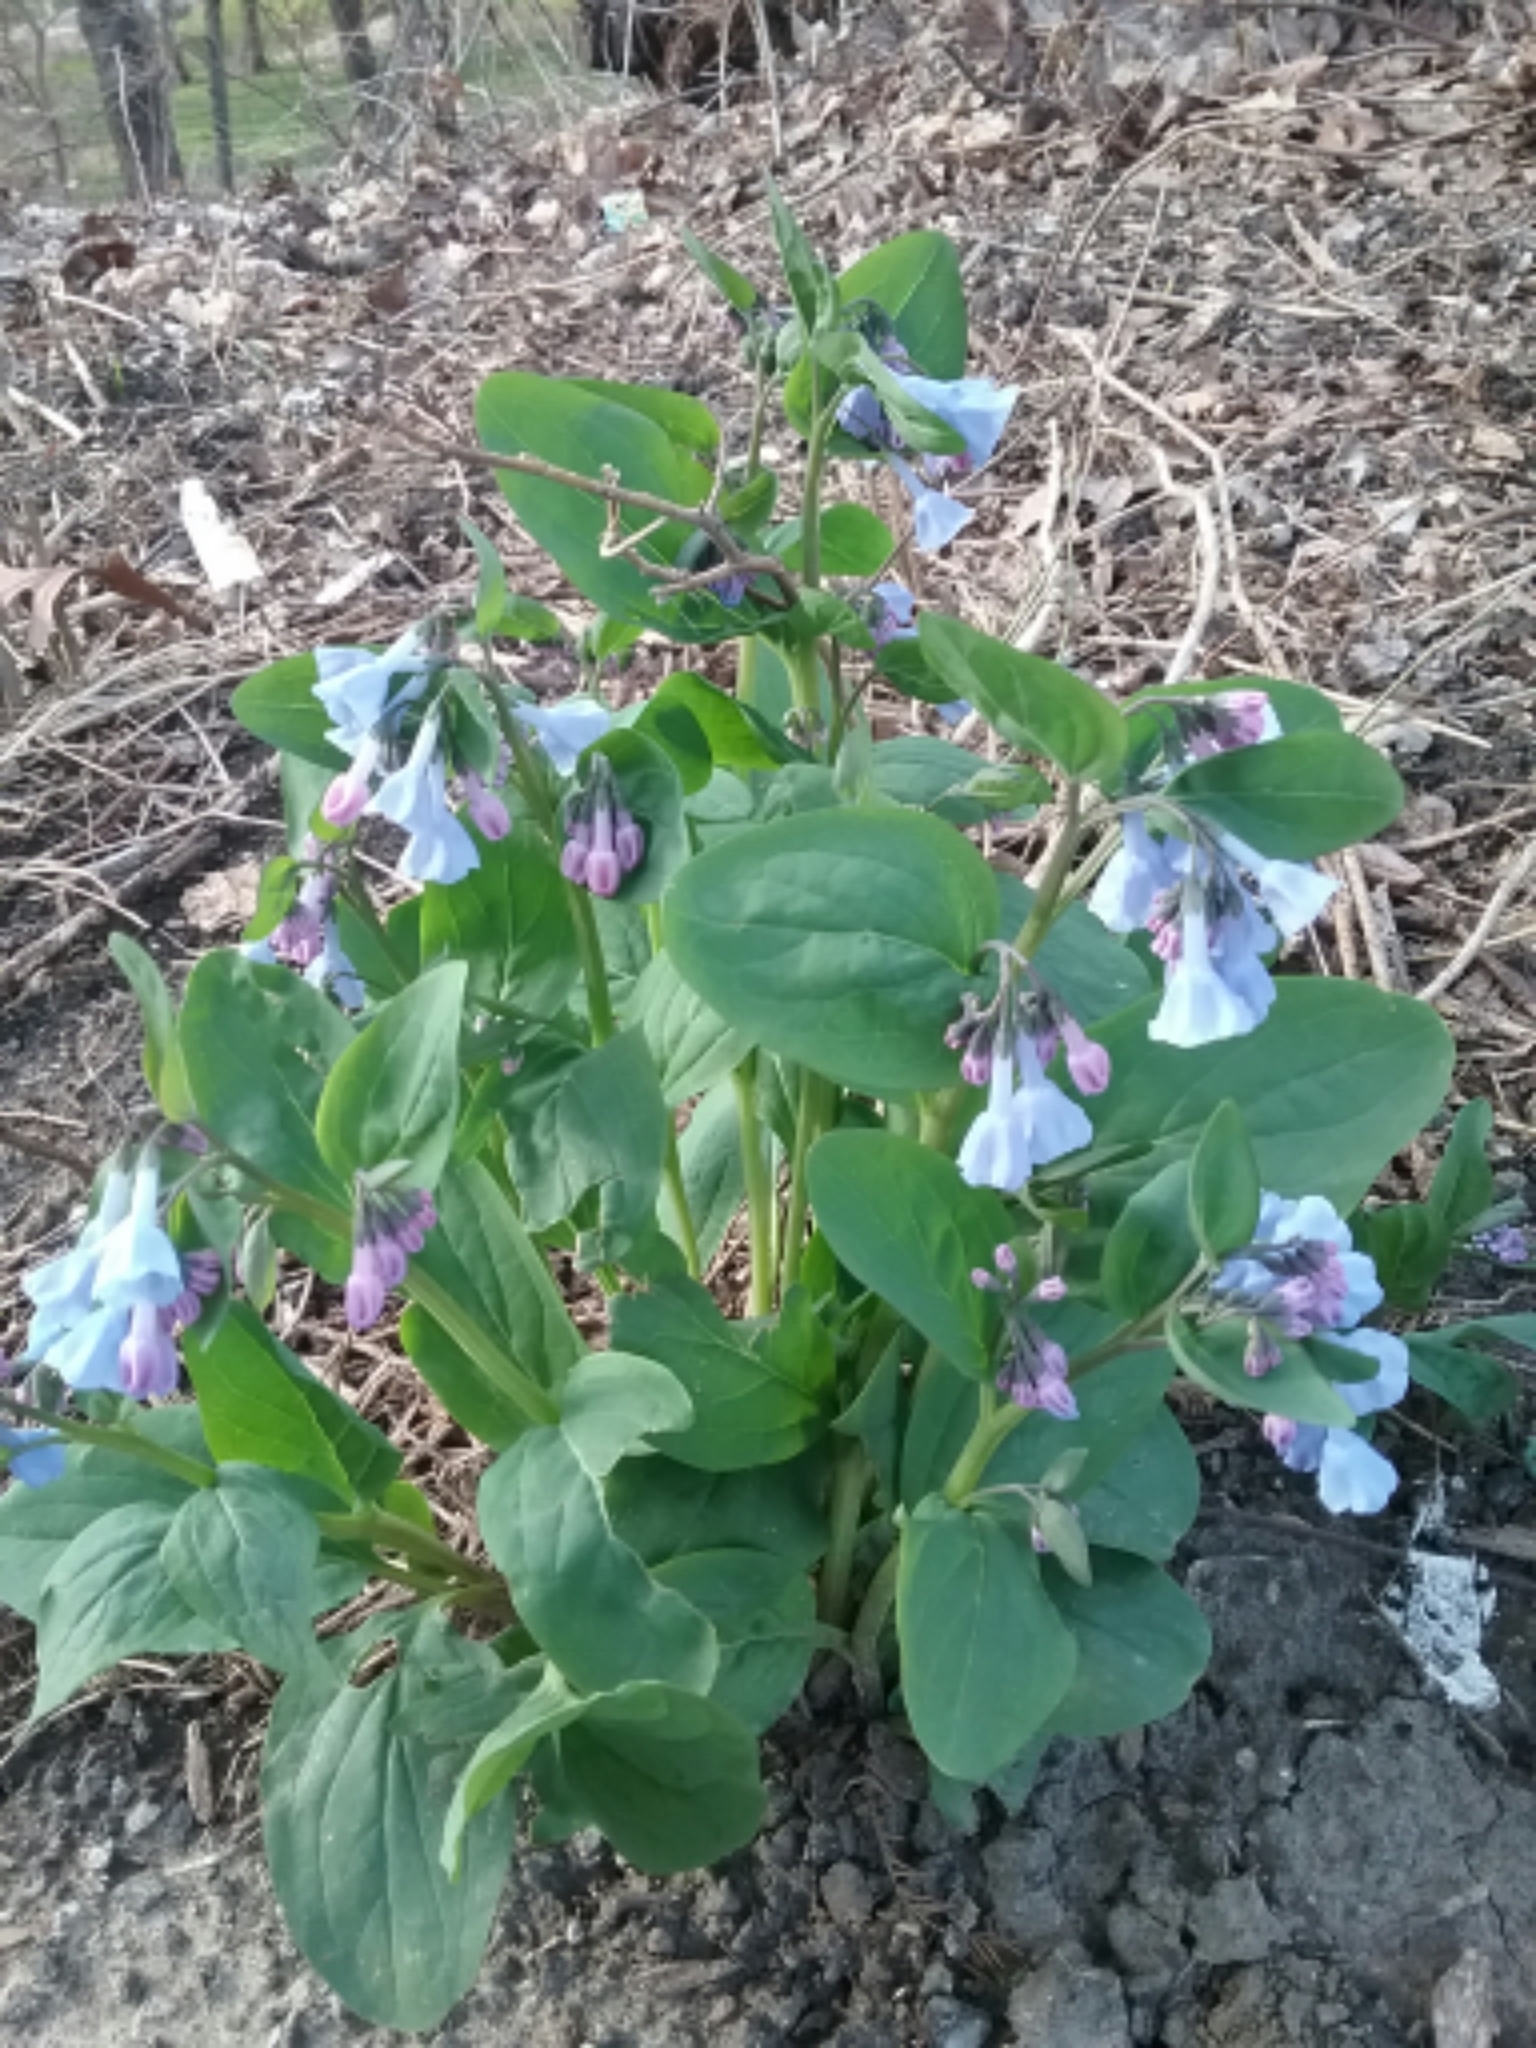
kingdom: Plantae
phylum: Tracheophyta
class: Magnoliopsida
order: Boraginales
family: Boraginaceae
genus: Mertensia
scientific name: Mertensia virginica
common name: Virginia bluebells
